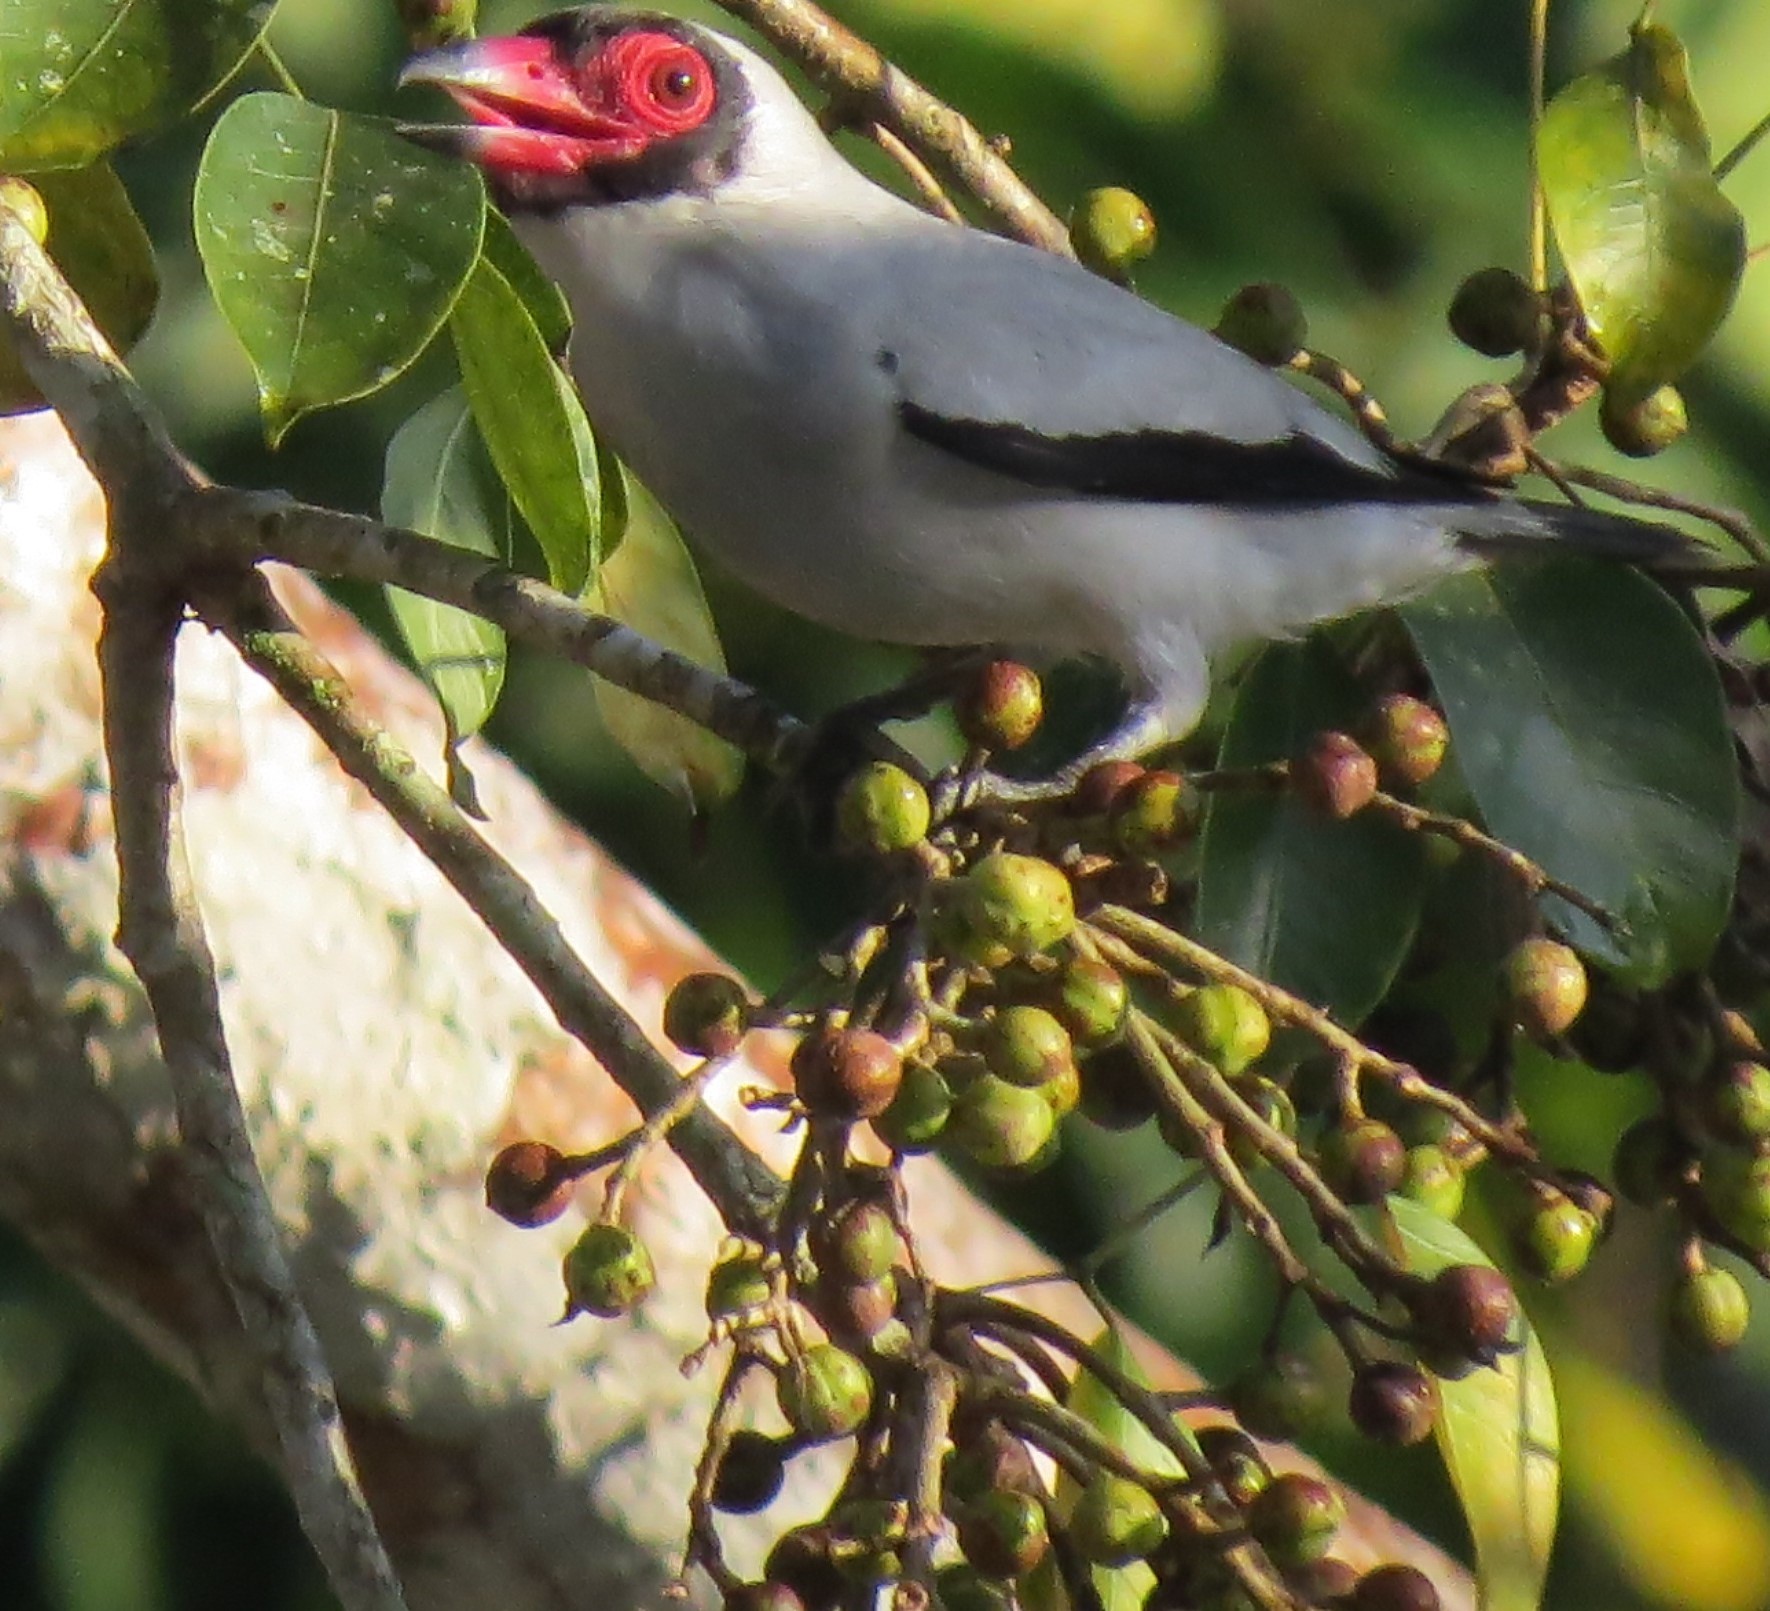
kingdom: Animalia
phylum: Chordata
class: Aves
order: Passeriformes
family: Cotingidae
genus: Tityra
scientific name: Tityra semifasciata
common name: Masked tityra
